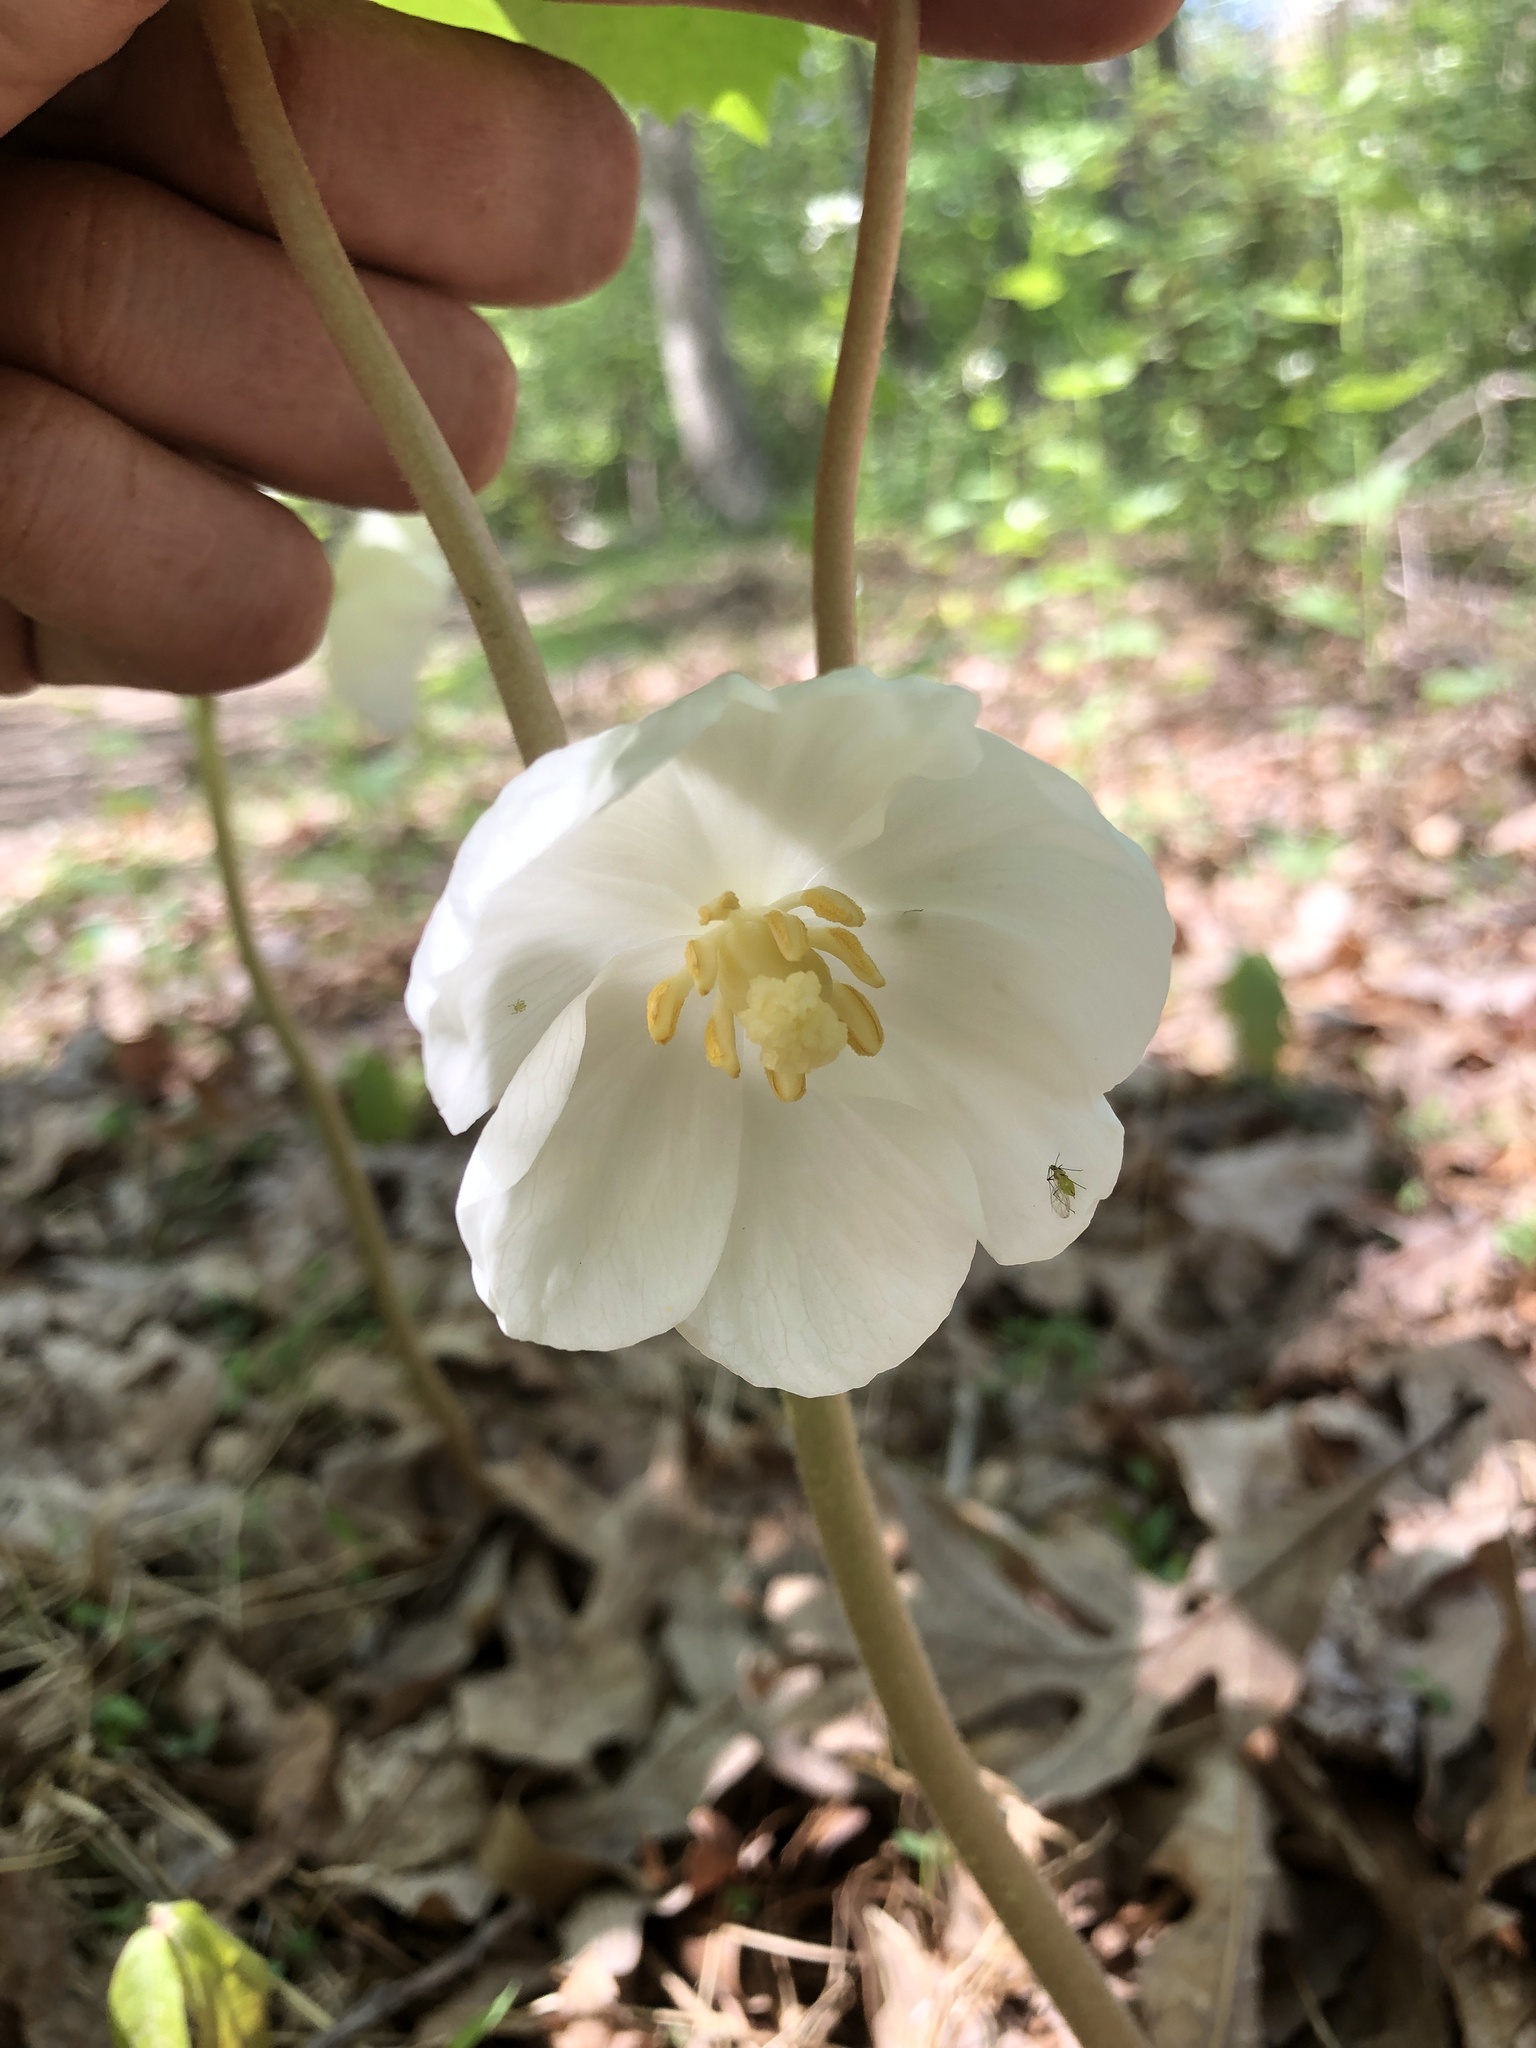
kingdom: Plantae
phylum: Tracheophyta
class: Magnoliopsida
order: Ranunculales
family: Berberidaceae
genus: Podophyllum
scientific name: Podophyllum peltatum
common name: Wild mandrake
